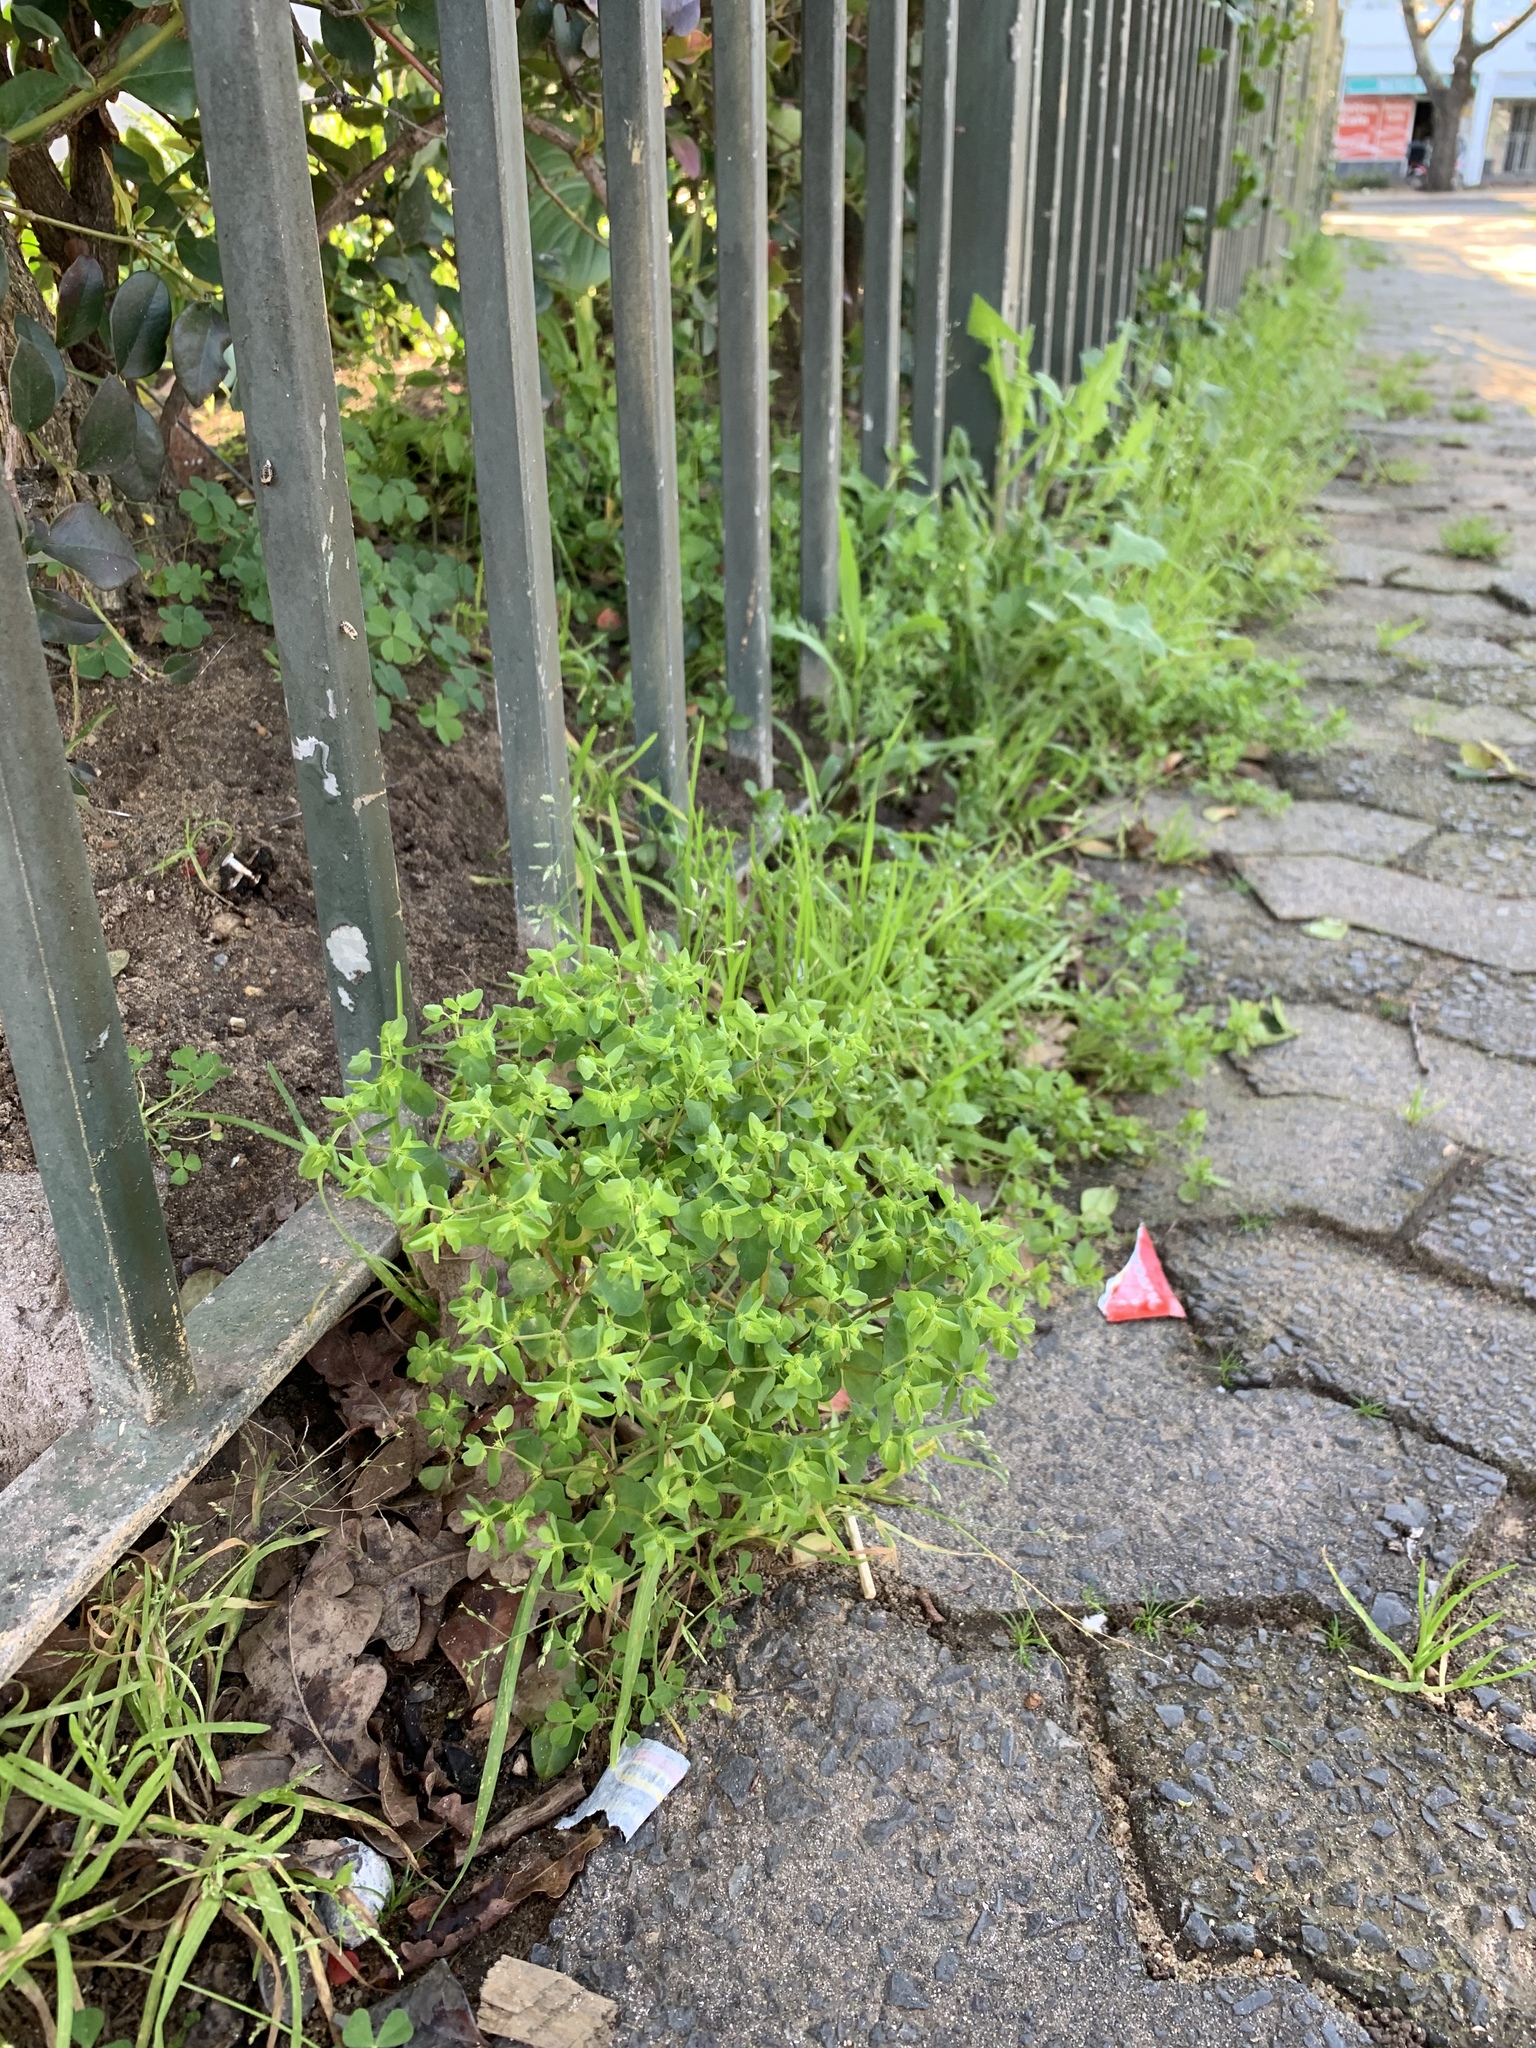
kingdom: Plantae
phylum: Tracheophyta
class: Magnoliopsida
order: Malpighiales
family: Euphorbiaceae
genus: Euphorbia
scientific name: Euphorbia peplus
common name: Petty spurge
